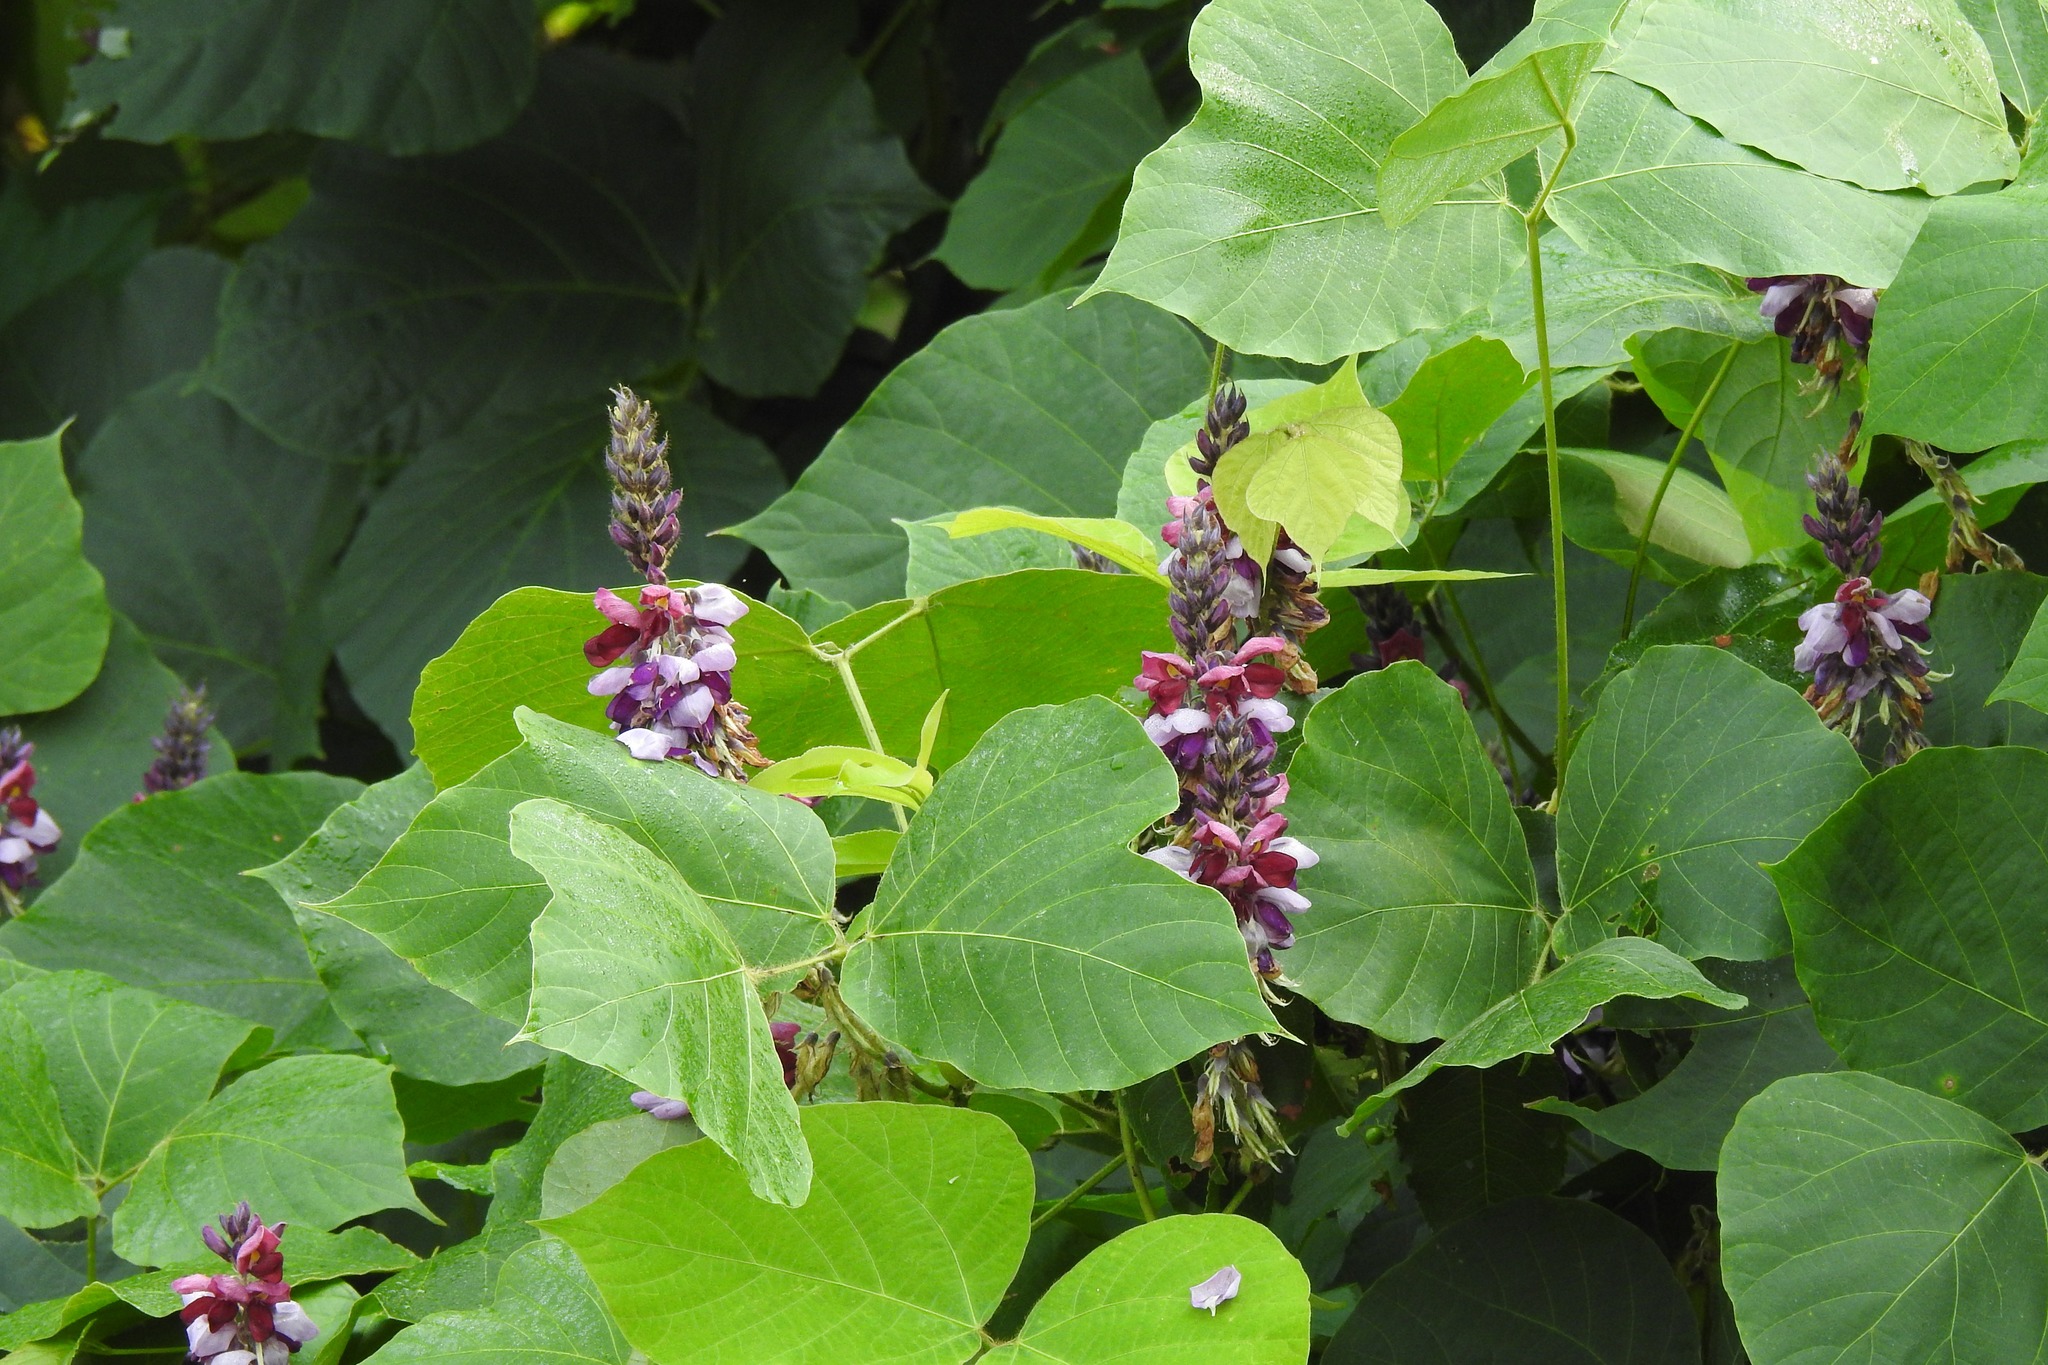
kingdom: Plantae
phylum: Tracheophyta
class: Magnoliopsida
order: Fabales
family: Fabaceae
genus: Pueraria
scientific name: Pueraria montana
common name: Kudzu
